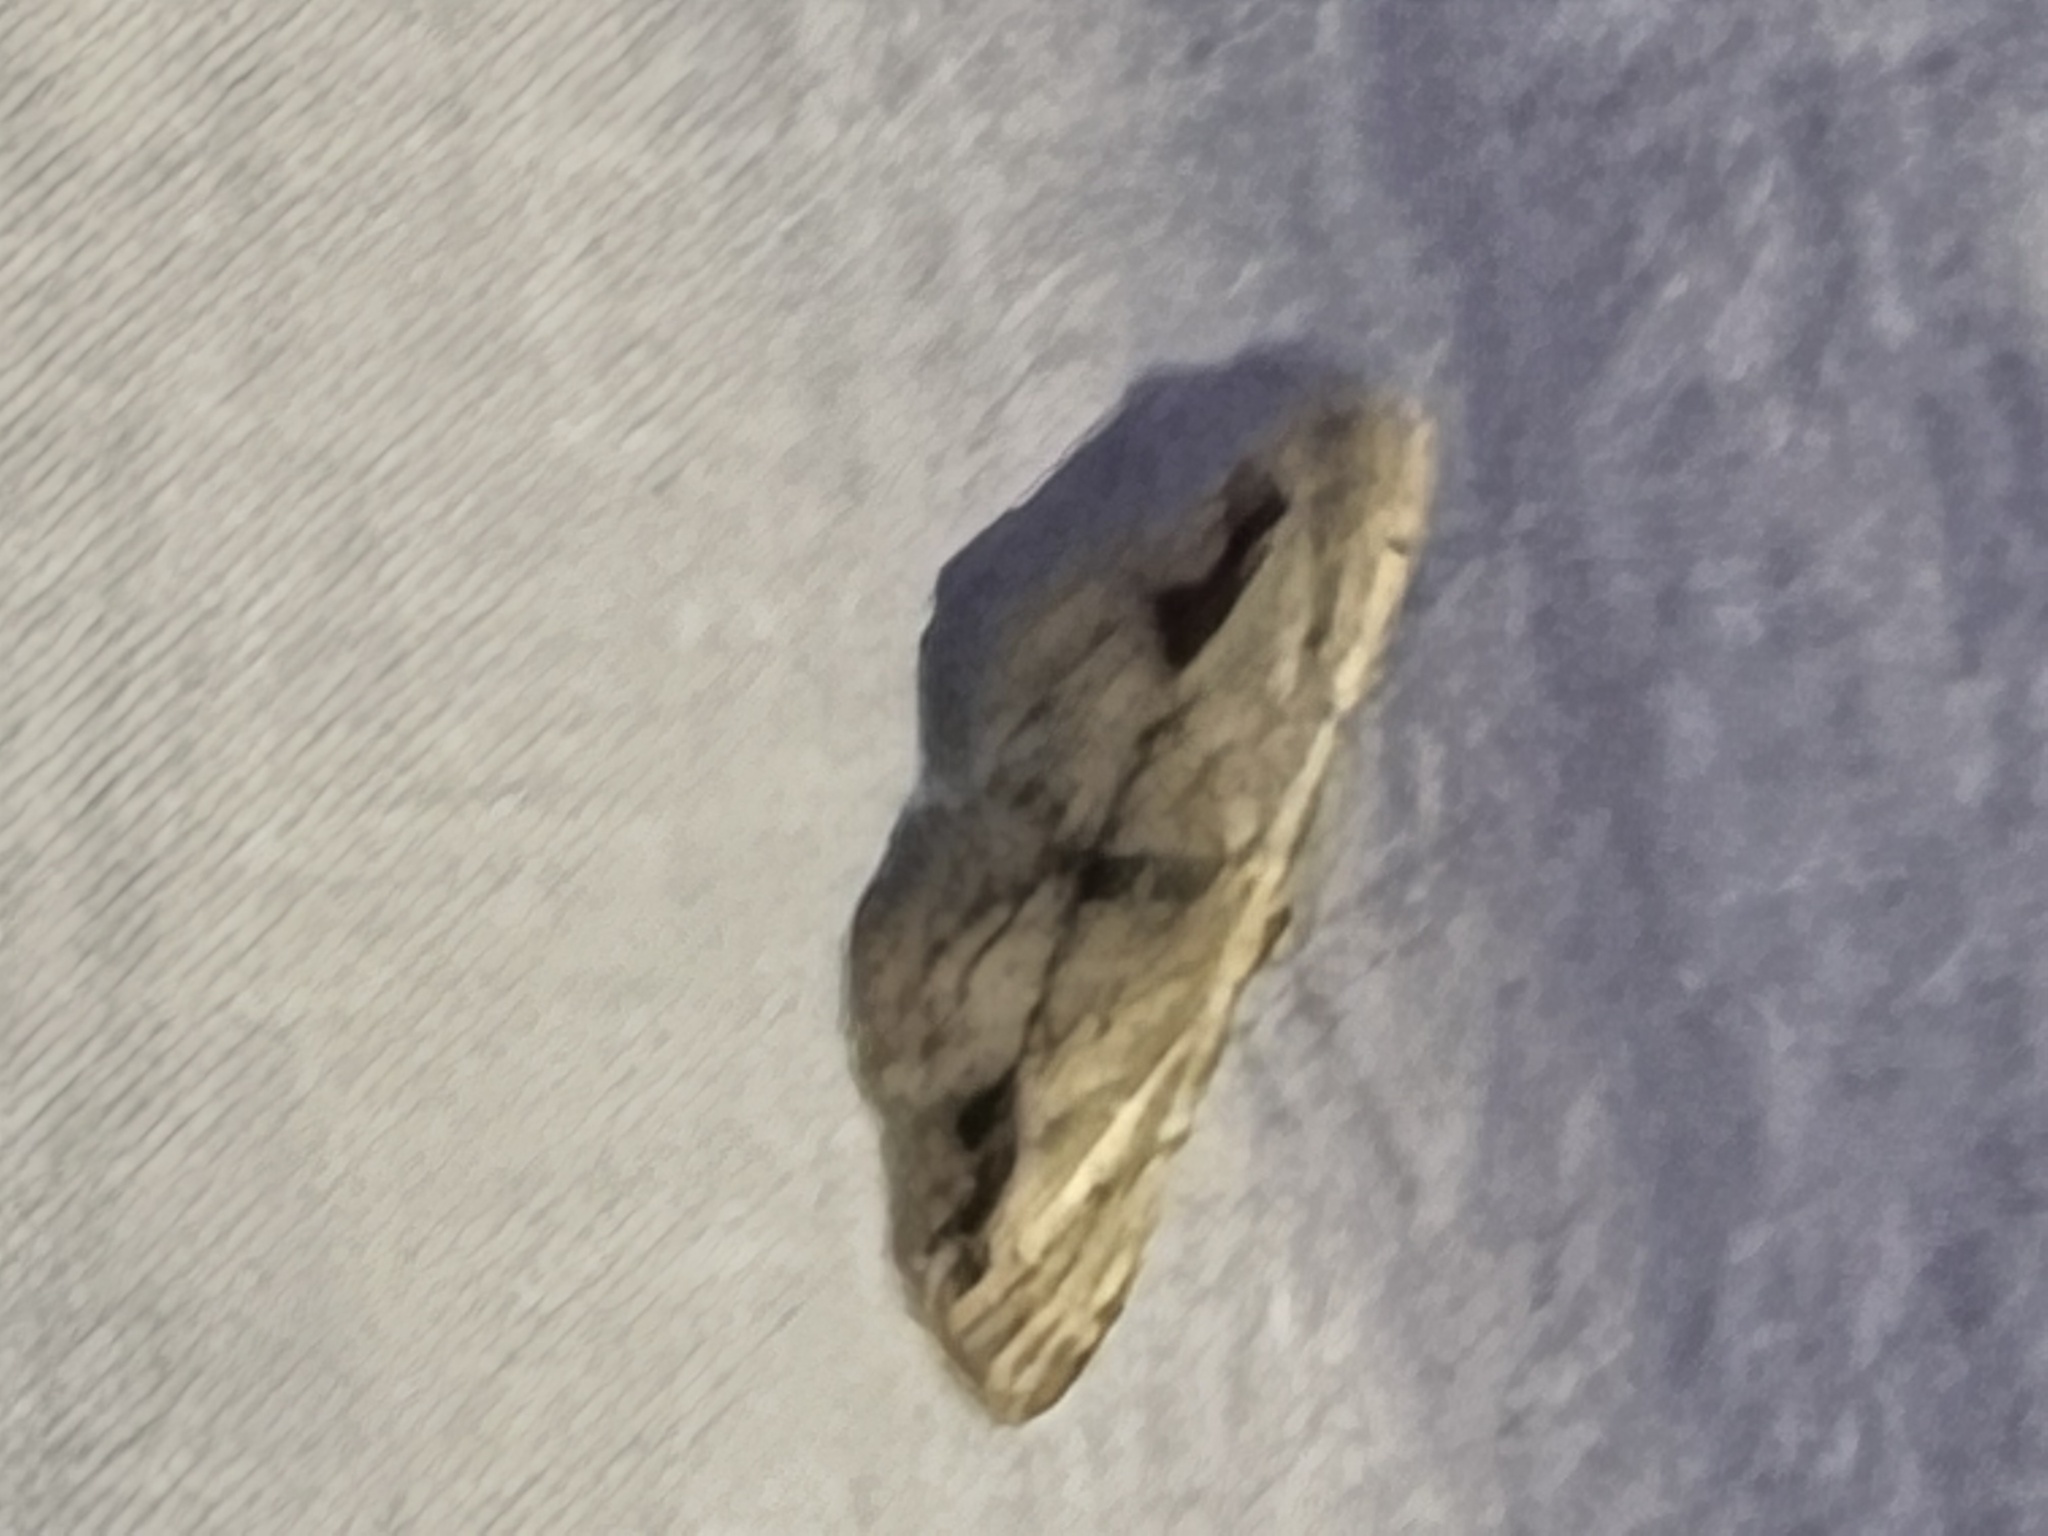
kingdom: Animalia
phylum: Arthropoda
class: Insecta
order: Lepidoptera
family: Geometridae
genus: Idaea
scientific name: Idaea dimidiata
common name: Single-dotted wave
